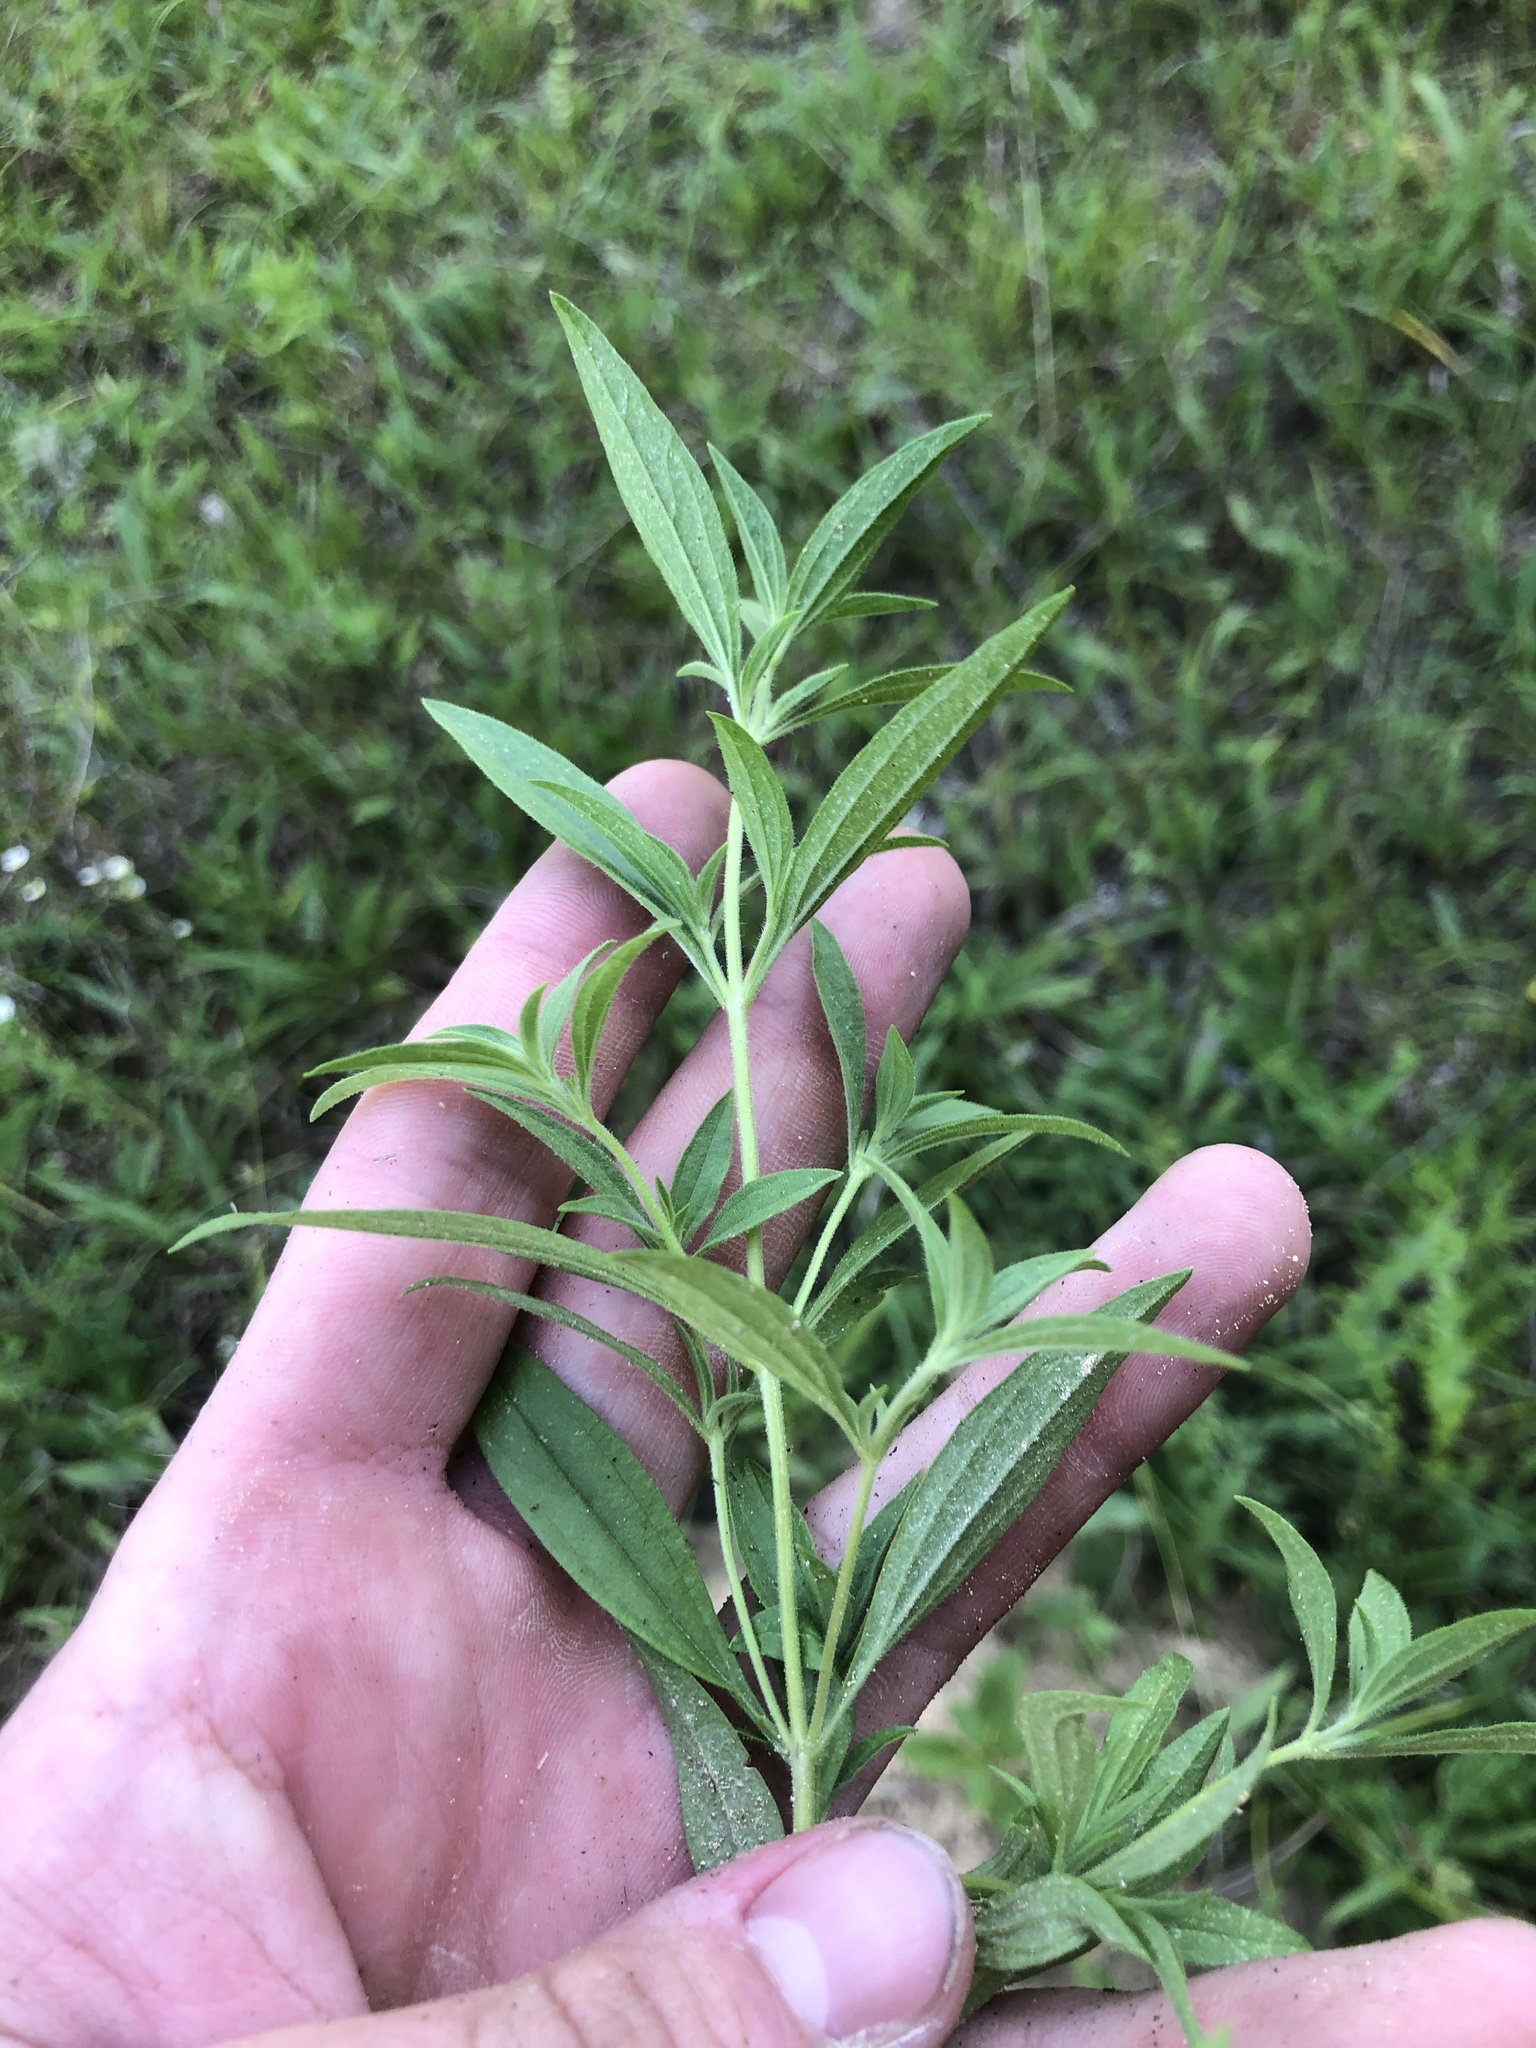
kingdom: Plantae
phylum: Tracheophyta
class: Magnoliopsida
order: Lamiales
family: Lamiaceae
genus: Trichostema
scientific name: Trichostema brachiatum
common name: False pennyroyal
